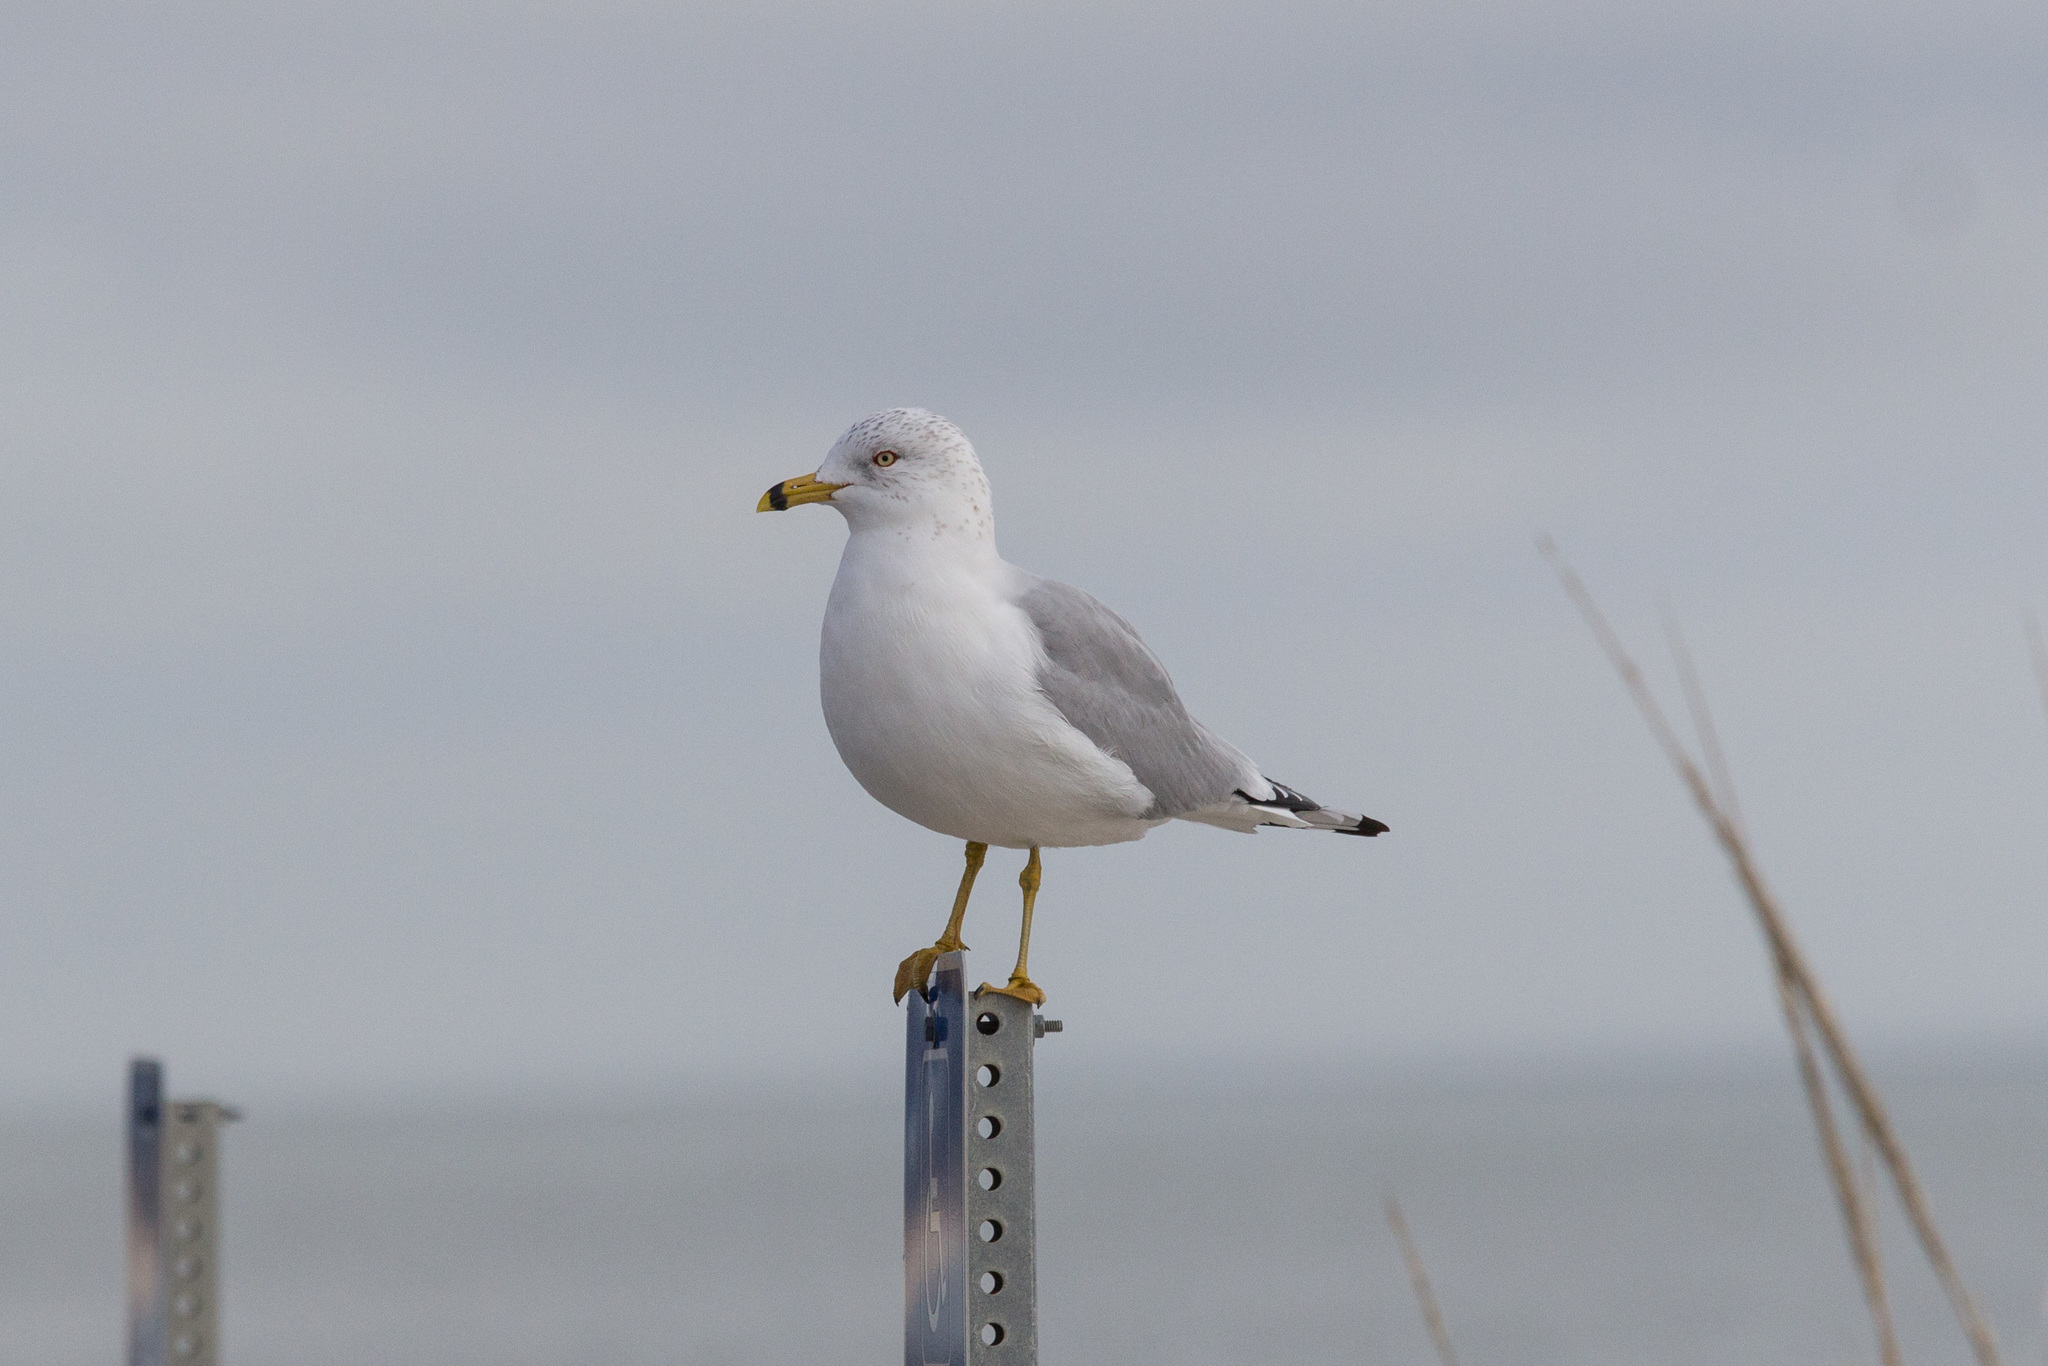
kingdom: Animalia
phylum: Chordata
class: Aves
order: Charadriiformes
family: Laridae
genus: Larus
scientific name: Larus delawarensis
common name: Ring-billed gull
